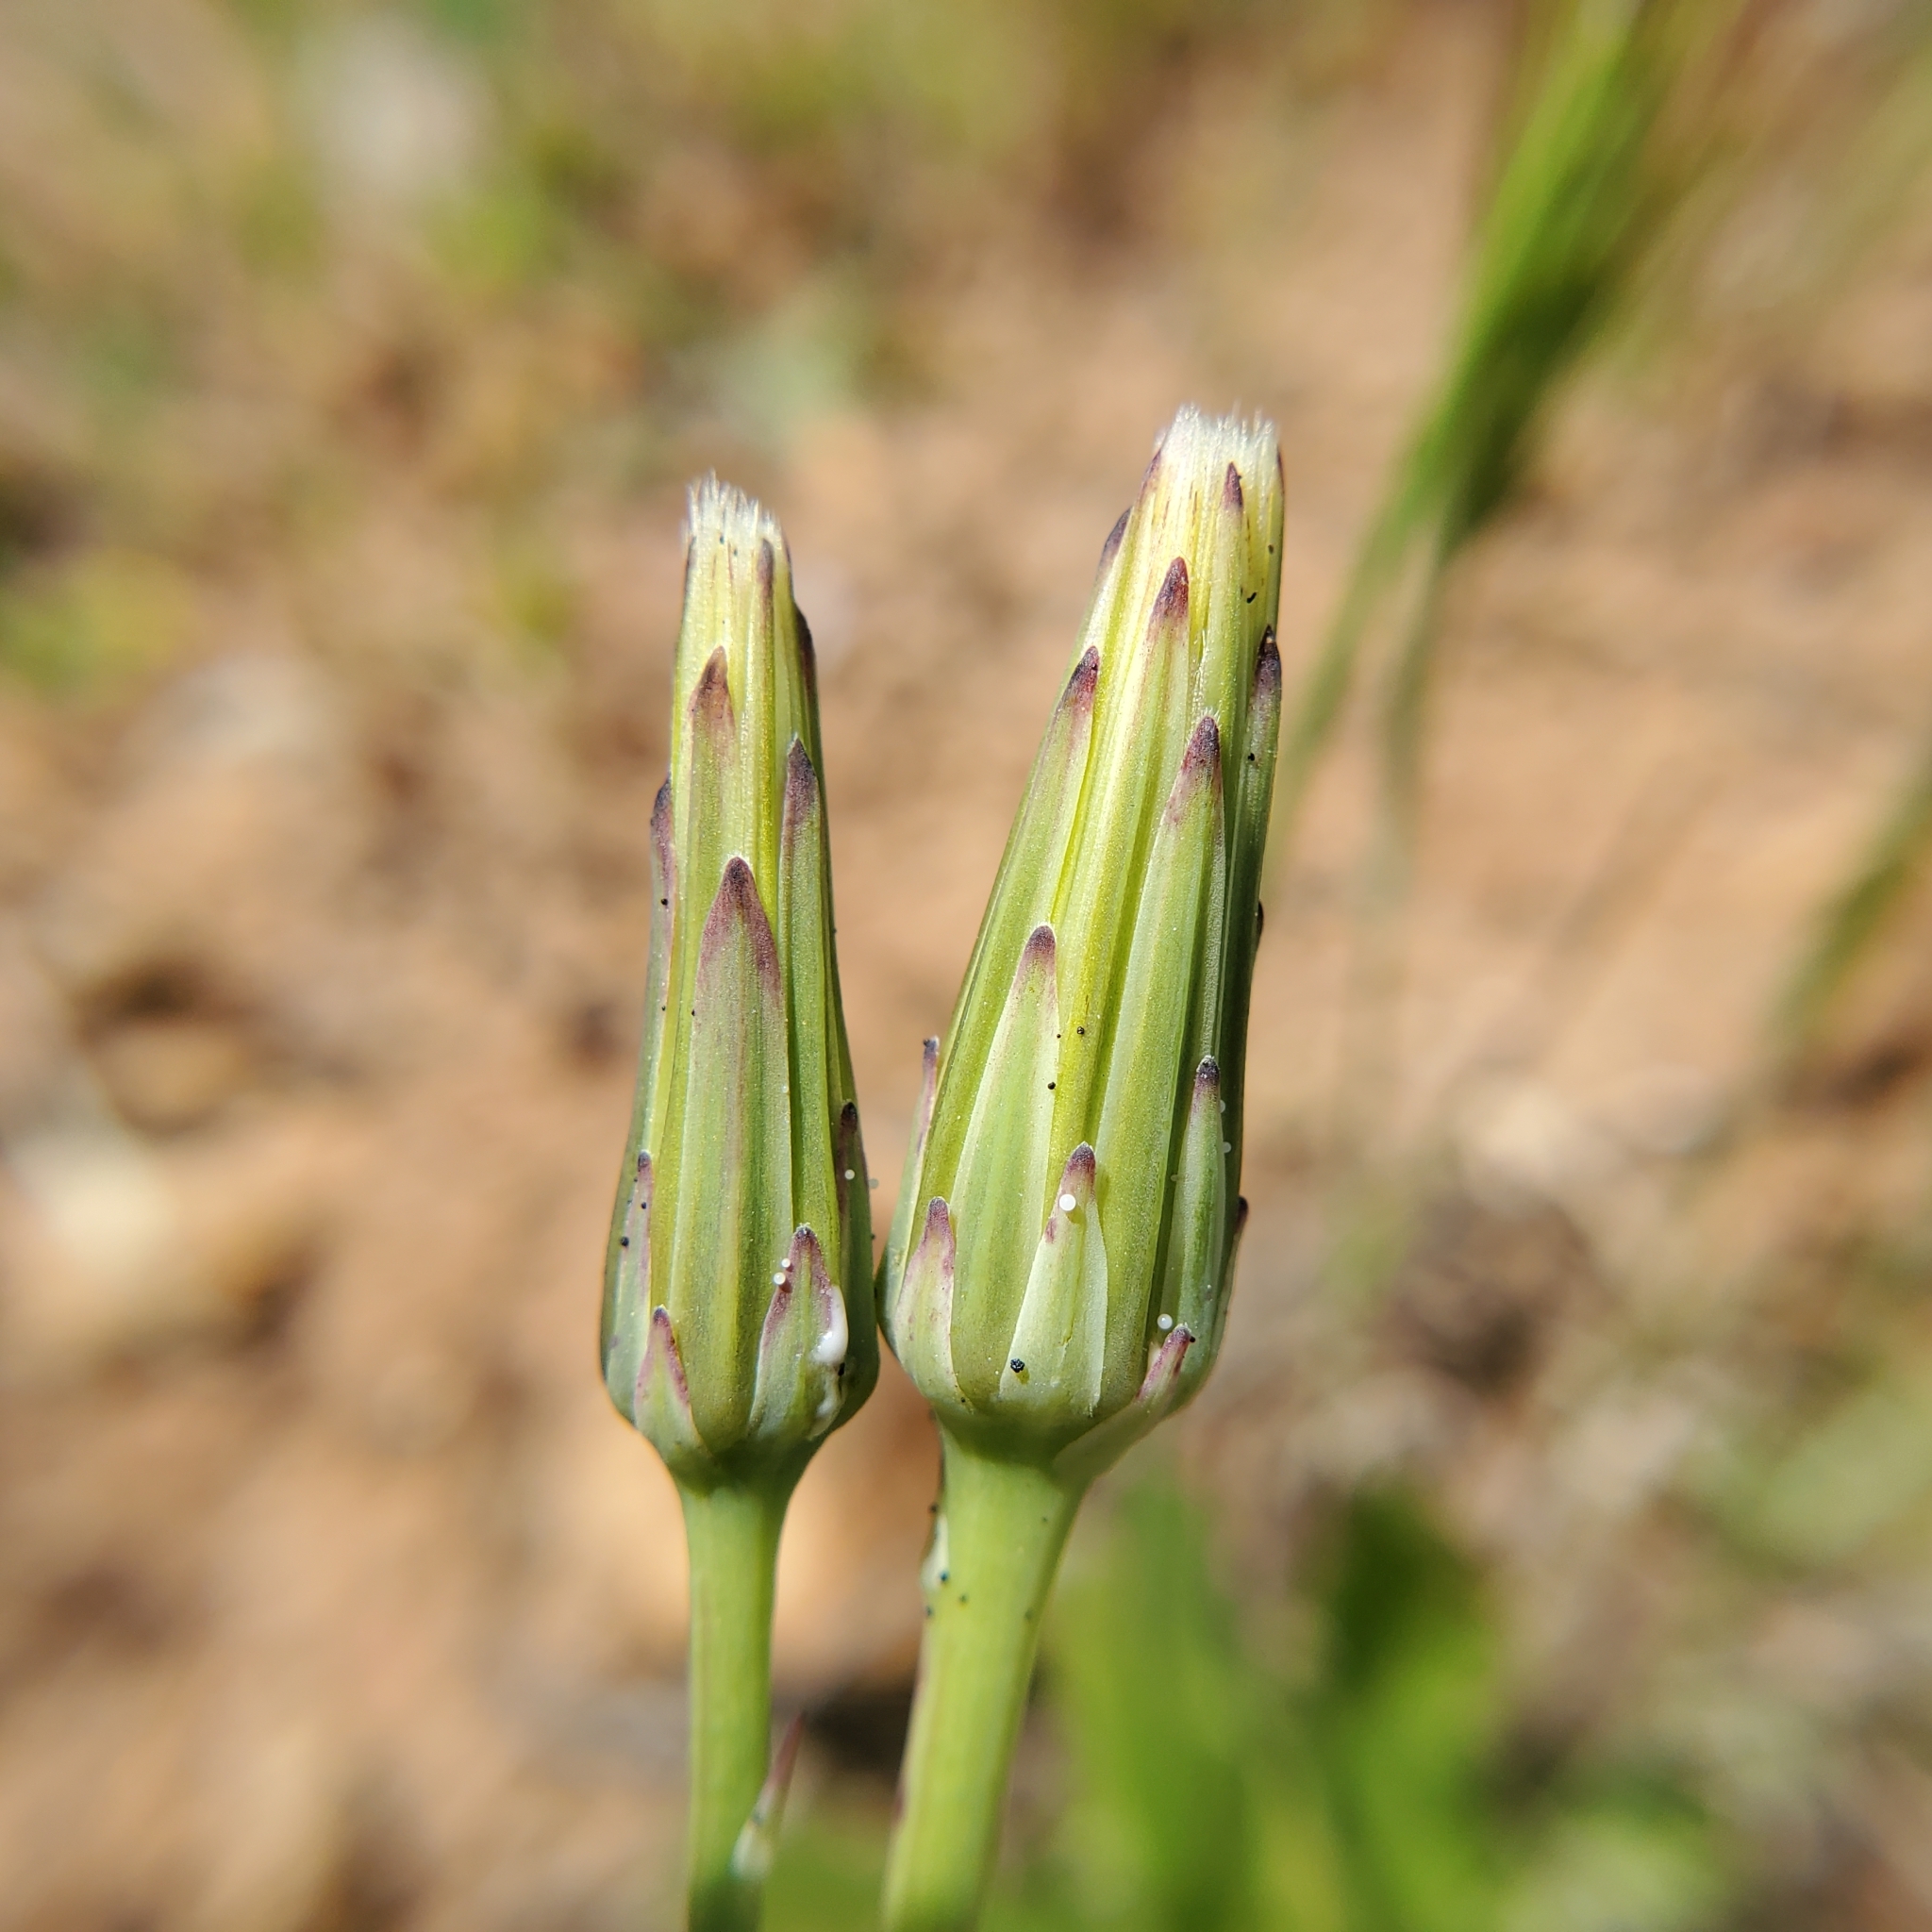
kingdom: Plantae
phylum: Tracheophyta
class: Magnoliopsida
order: Asterales
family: Asteraceae
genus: Hypochaeris
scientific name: Hypochaeris glabra
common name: Smooth catsear
